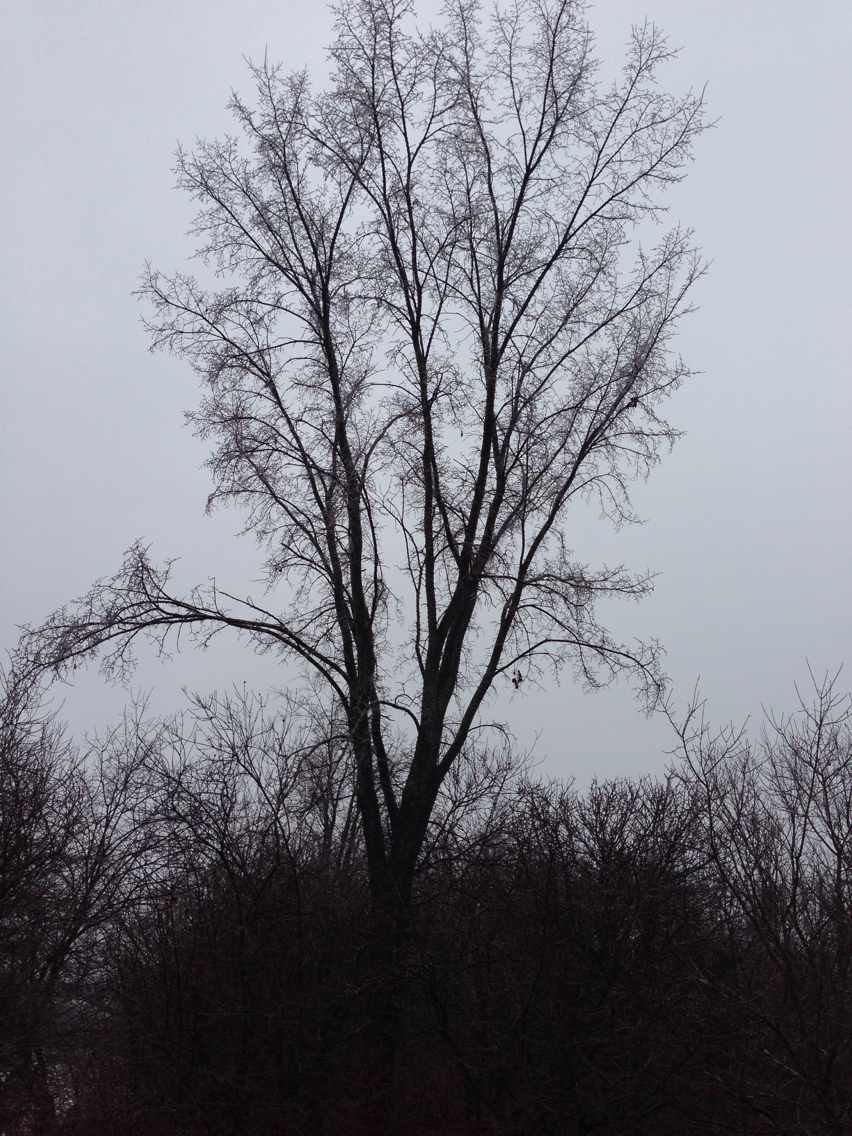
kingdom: Plantae
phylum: Tracheophyta
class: Magnoliopsida
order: Rosales
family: Ulmaceae
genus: Ulmus
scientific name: Ulmus americana
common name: American elm
